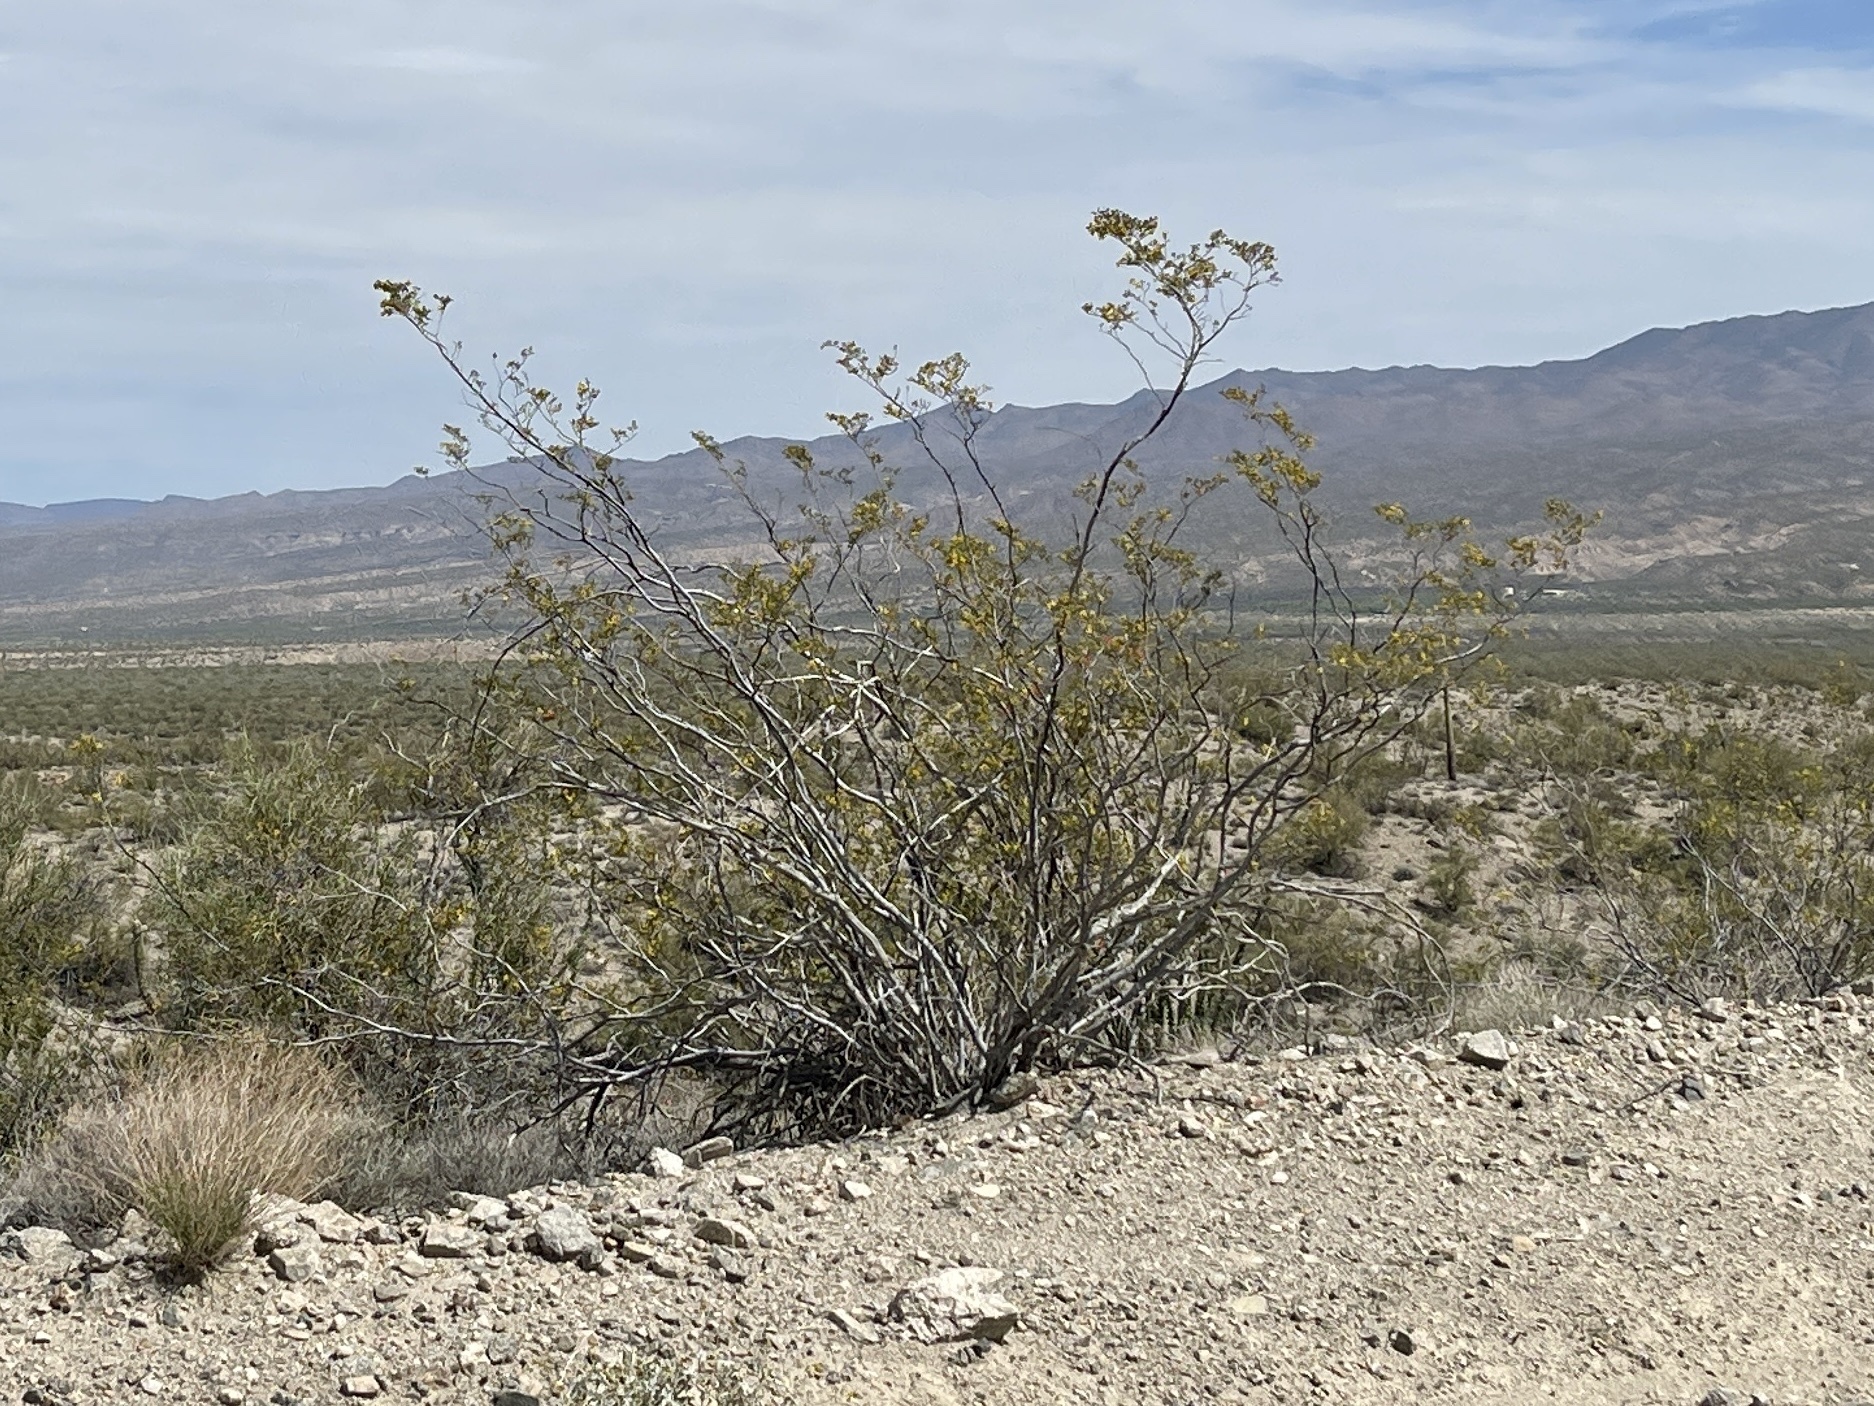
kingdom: Plantae
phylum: Tracheophyta
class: Magnoliopsida
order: Zygophyllales
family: Zygophyllaceae
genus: Larrea
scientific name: Larrea tridentata
